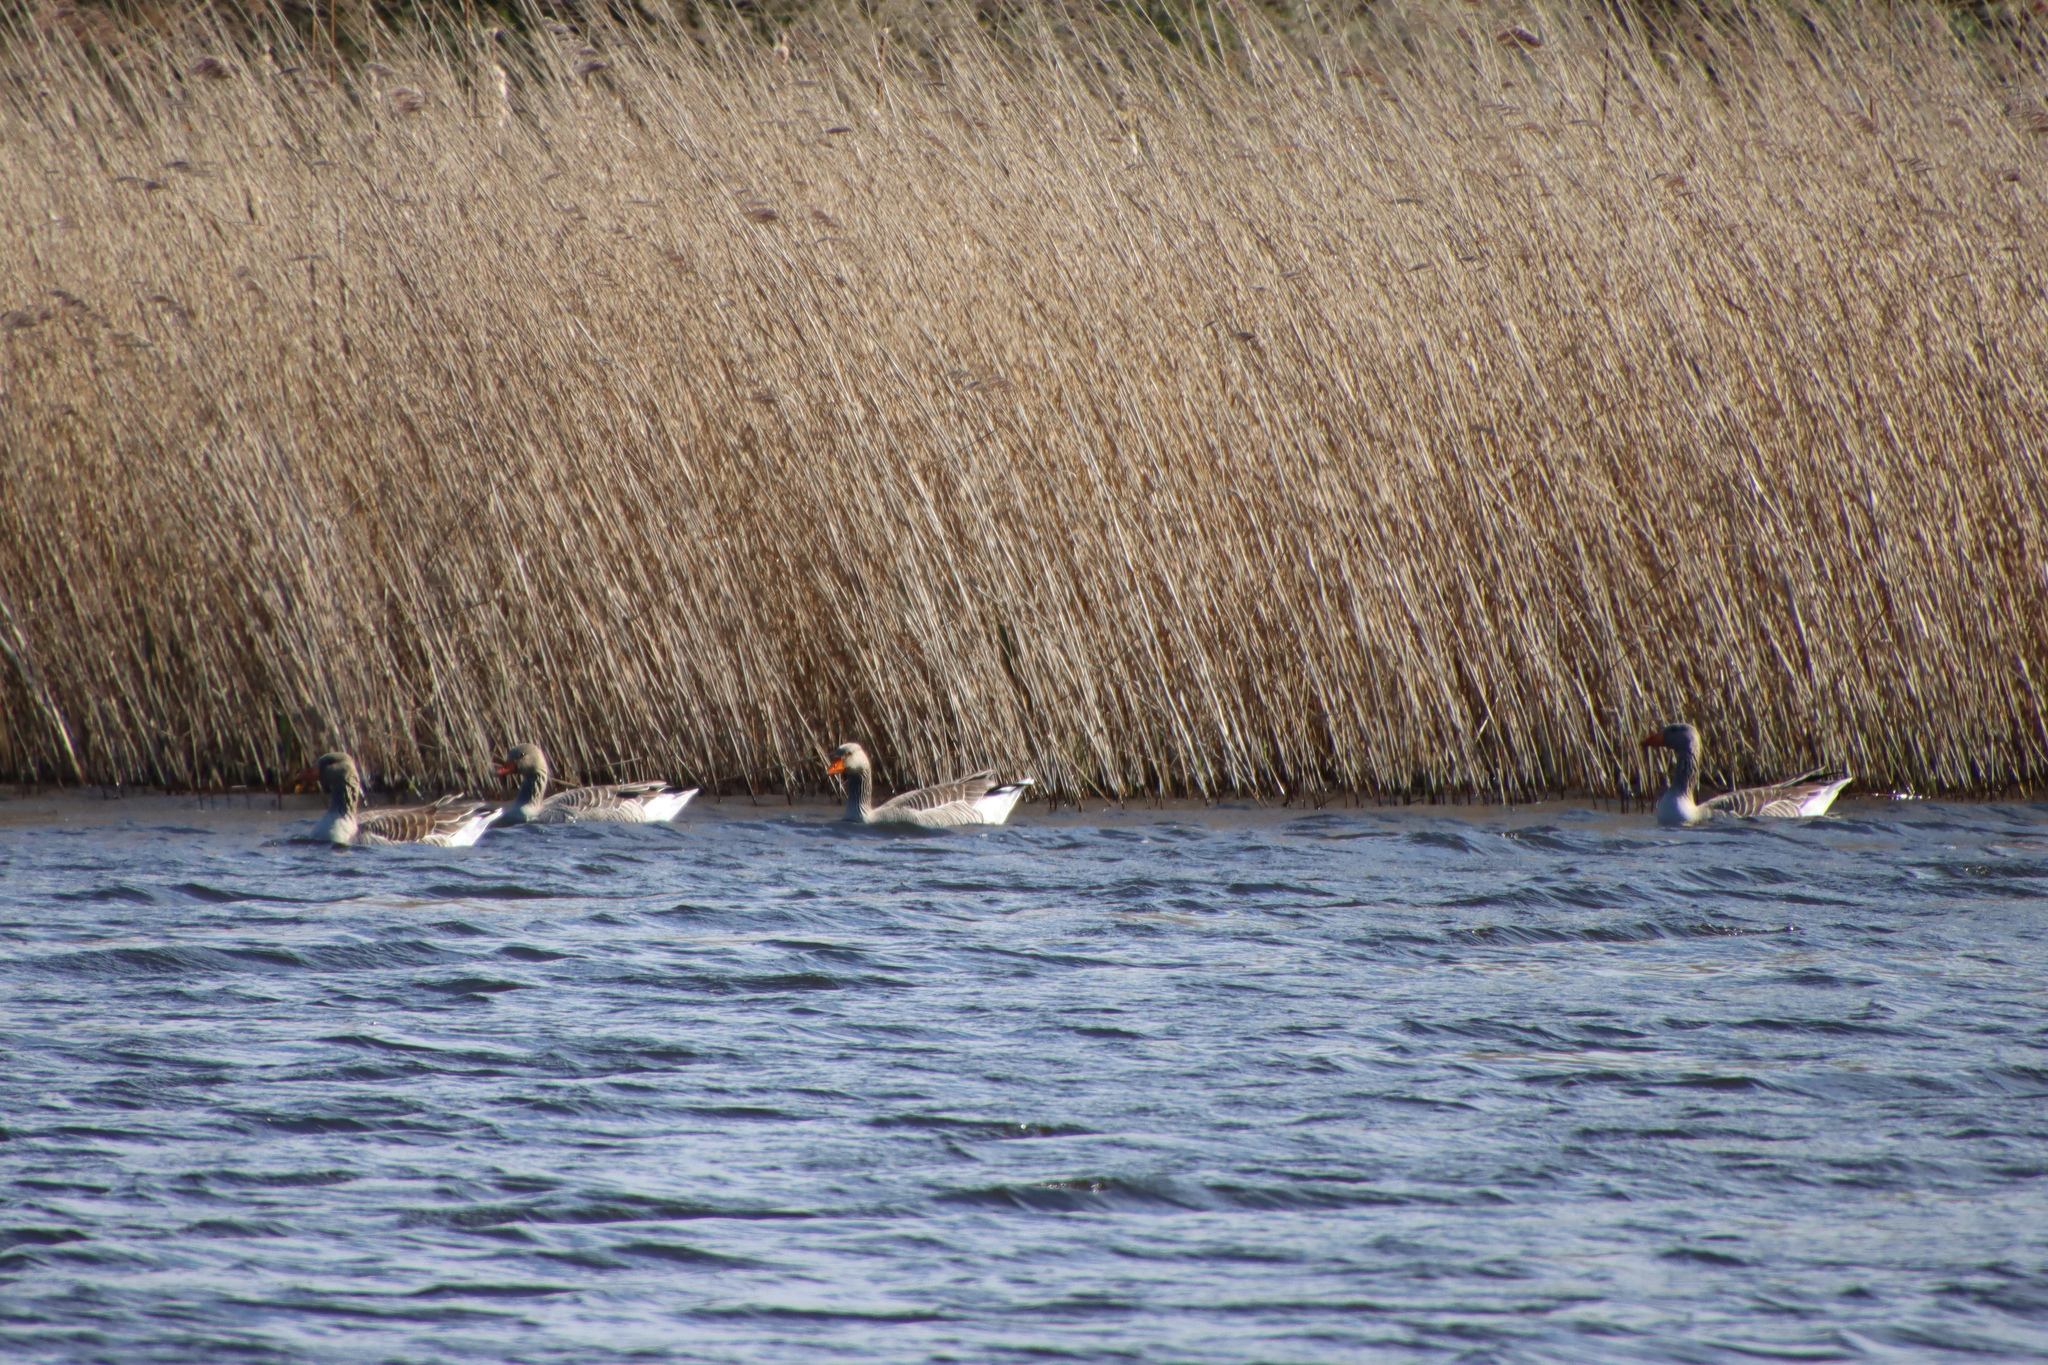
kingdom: Animalia
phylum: Chordata
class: Aves
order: Anseriformes
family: Anatidae
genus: Anser
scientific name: Anser anser
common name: Greylag goose
